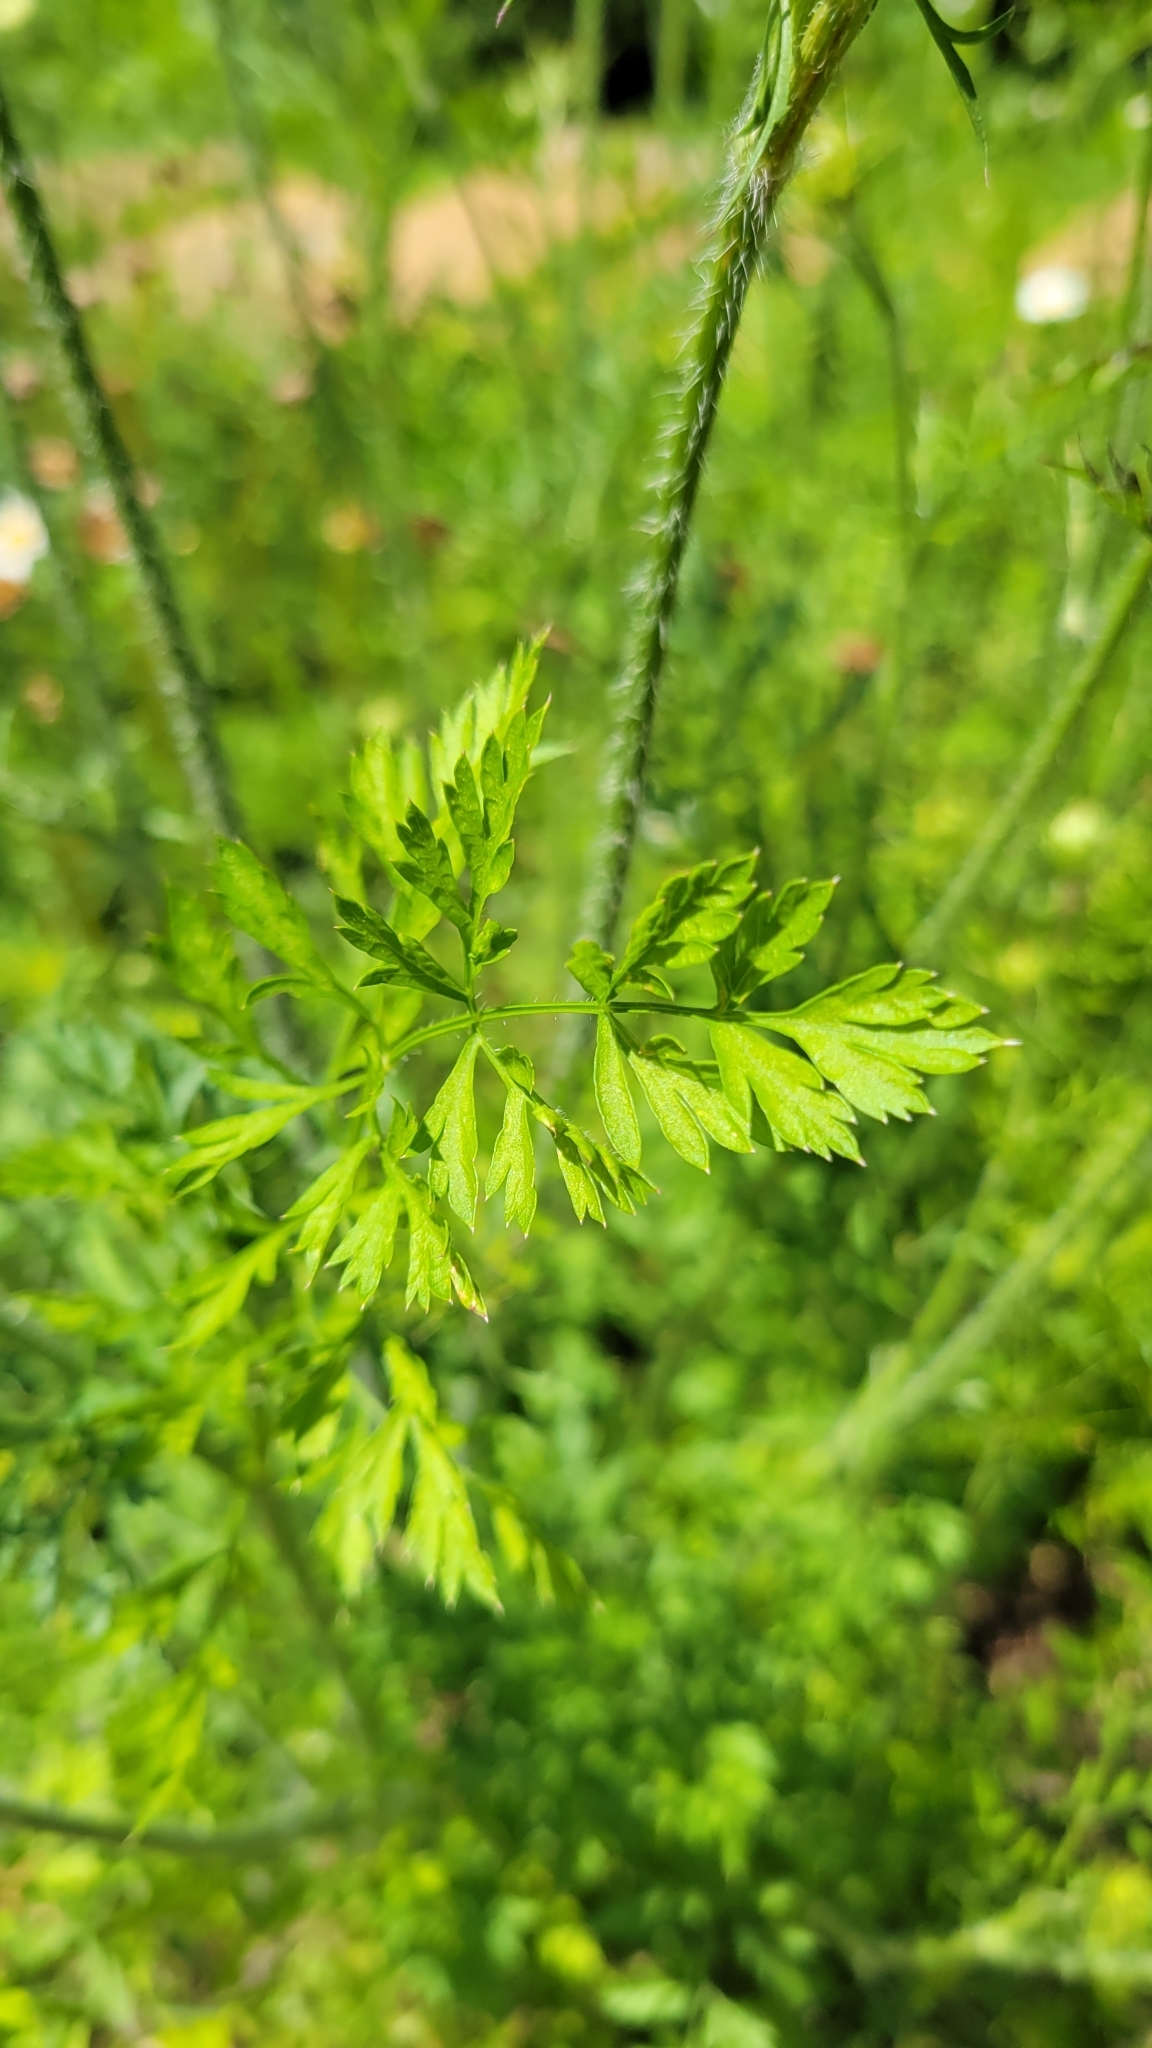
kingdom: Plantae
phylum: Tracheophyta
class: Magnoliopsida
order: Apiales
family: Apiaceae
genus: Daucus
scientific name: Daucus carota
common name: Wild carrot
